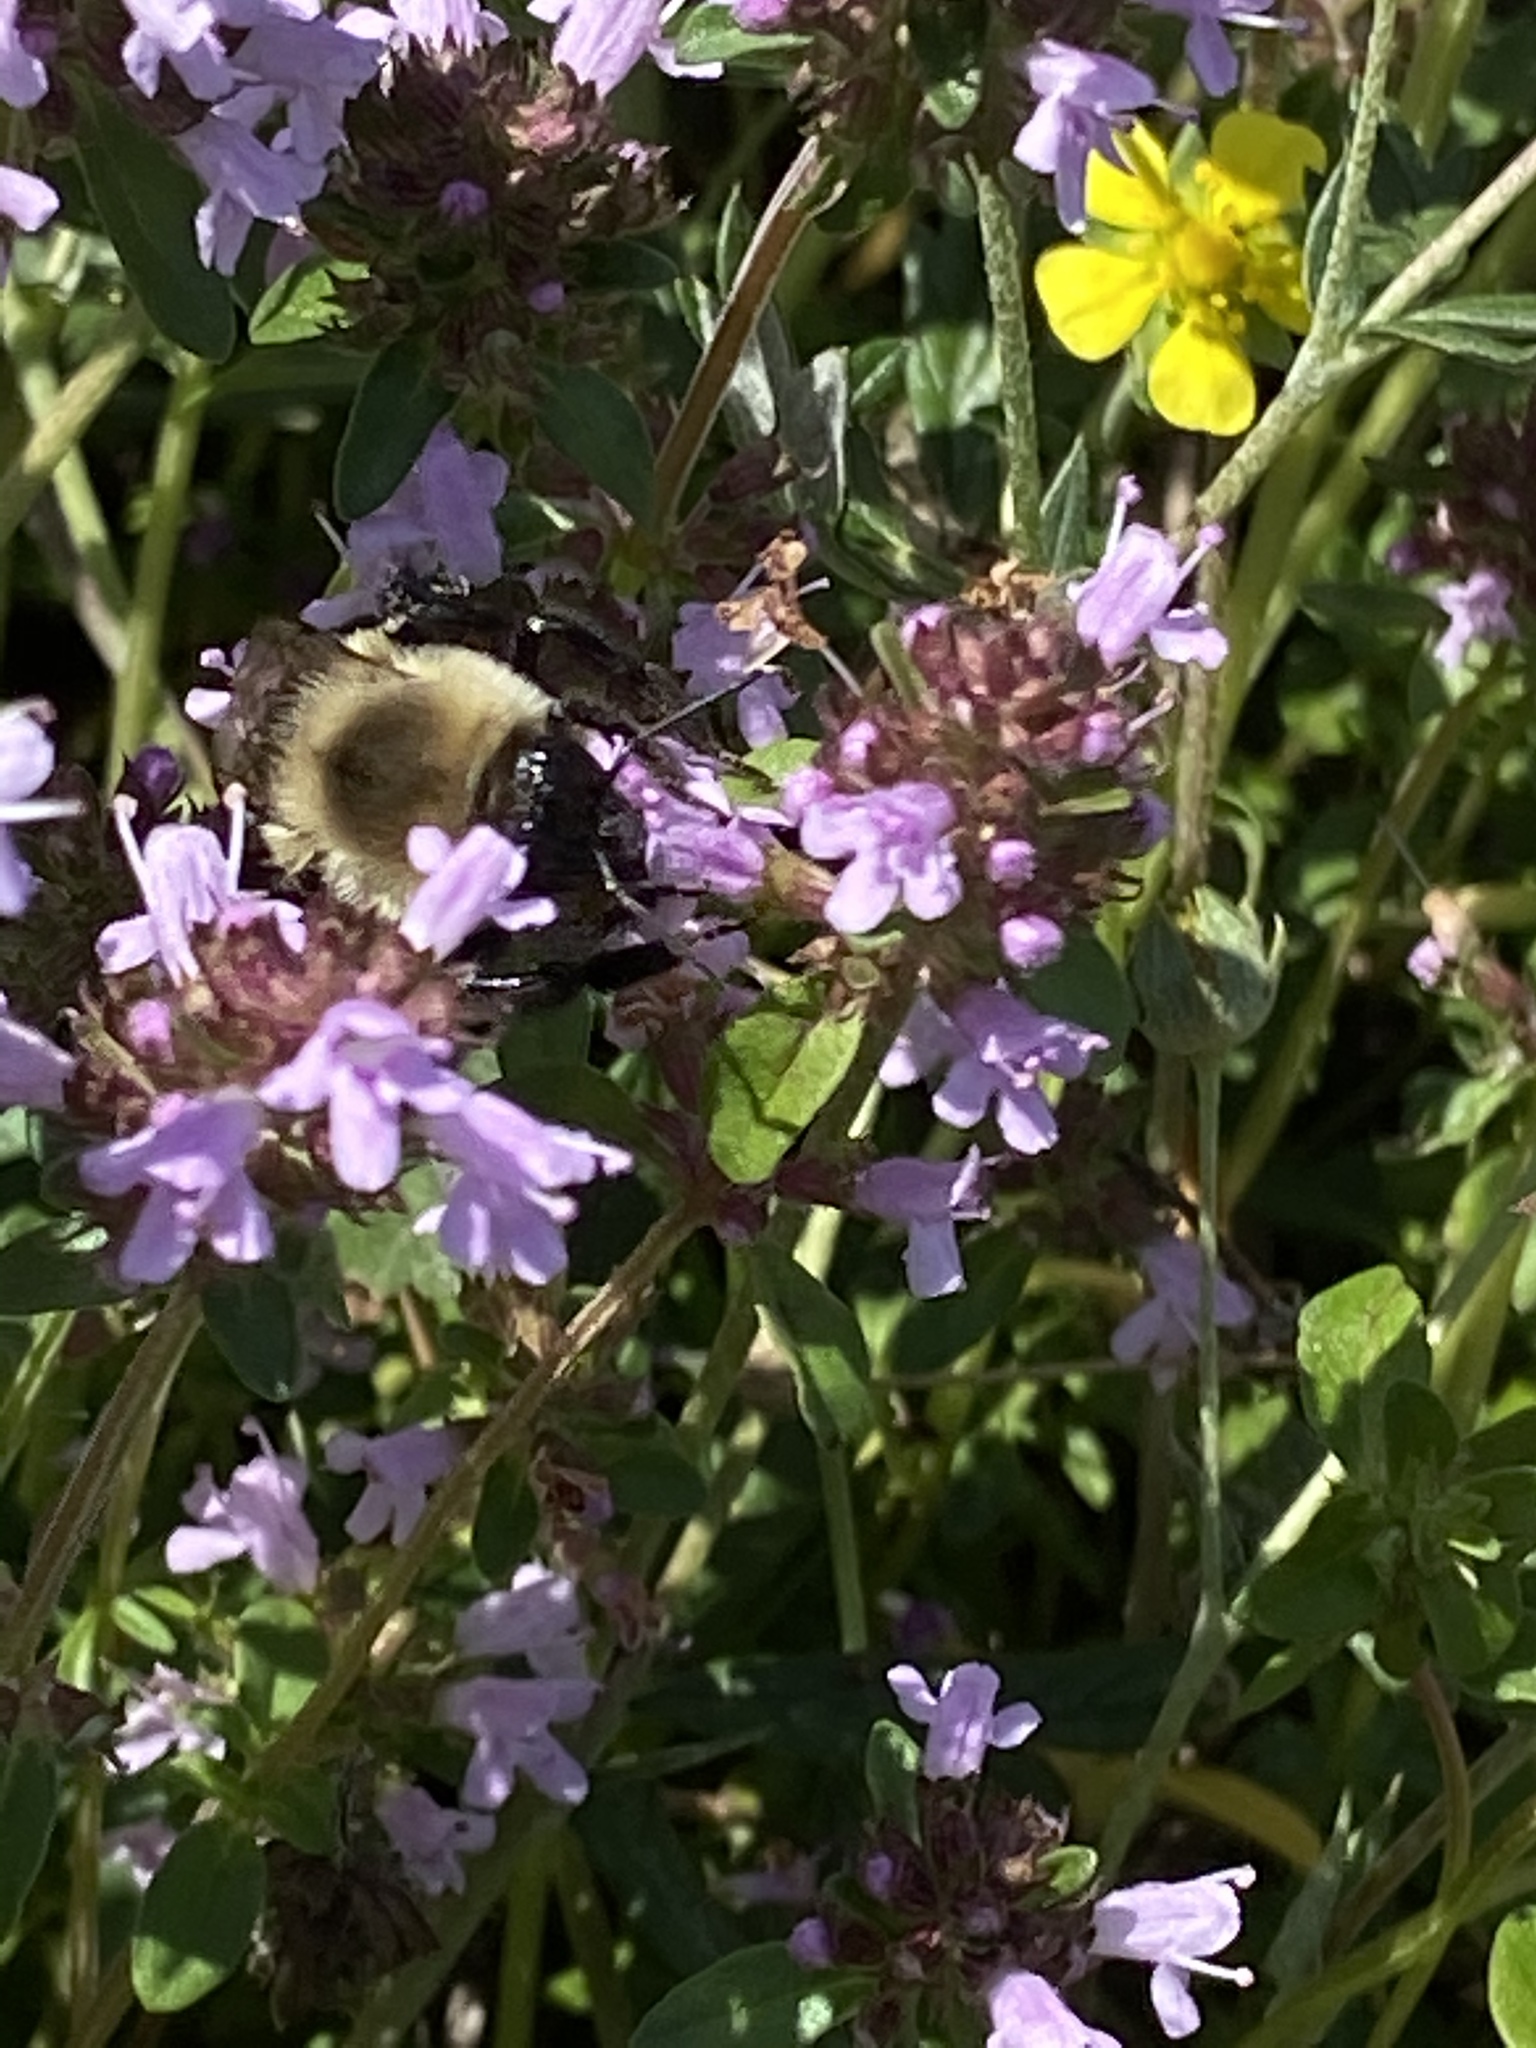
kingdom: Animalia
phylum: Arthropoda
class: Insecta
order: Hymenoptera
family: Apidae
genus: Bombus
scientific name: Bombus impatiens
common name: Common eastern bumble bee
